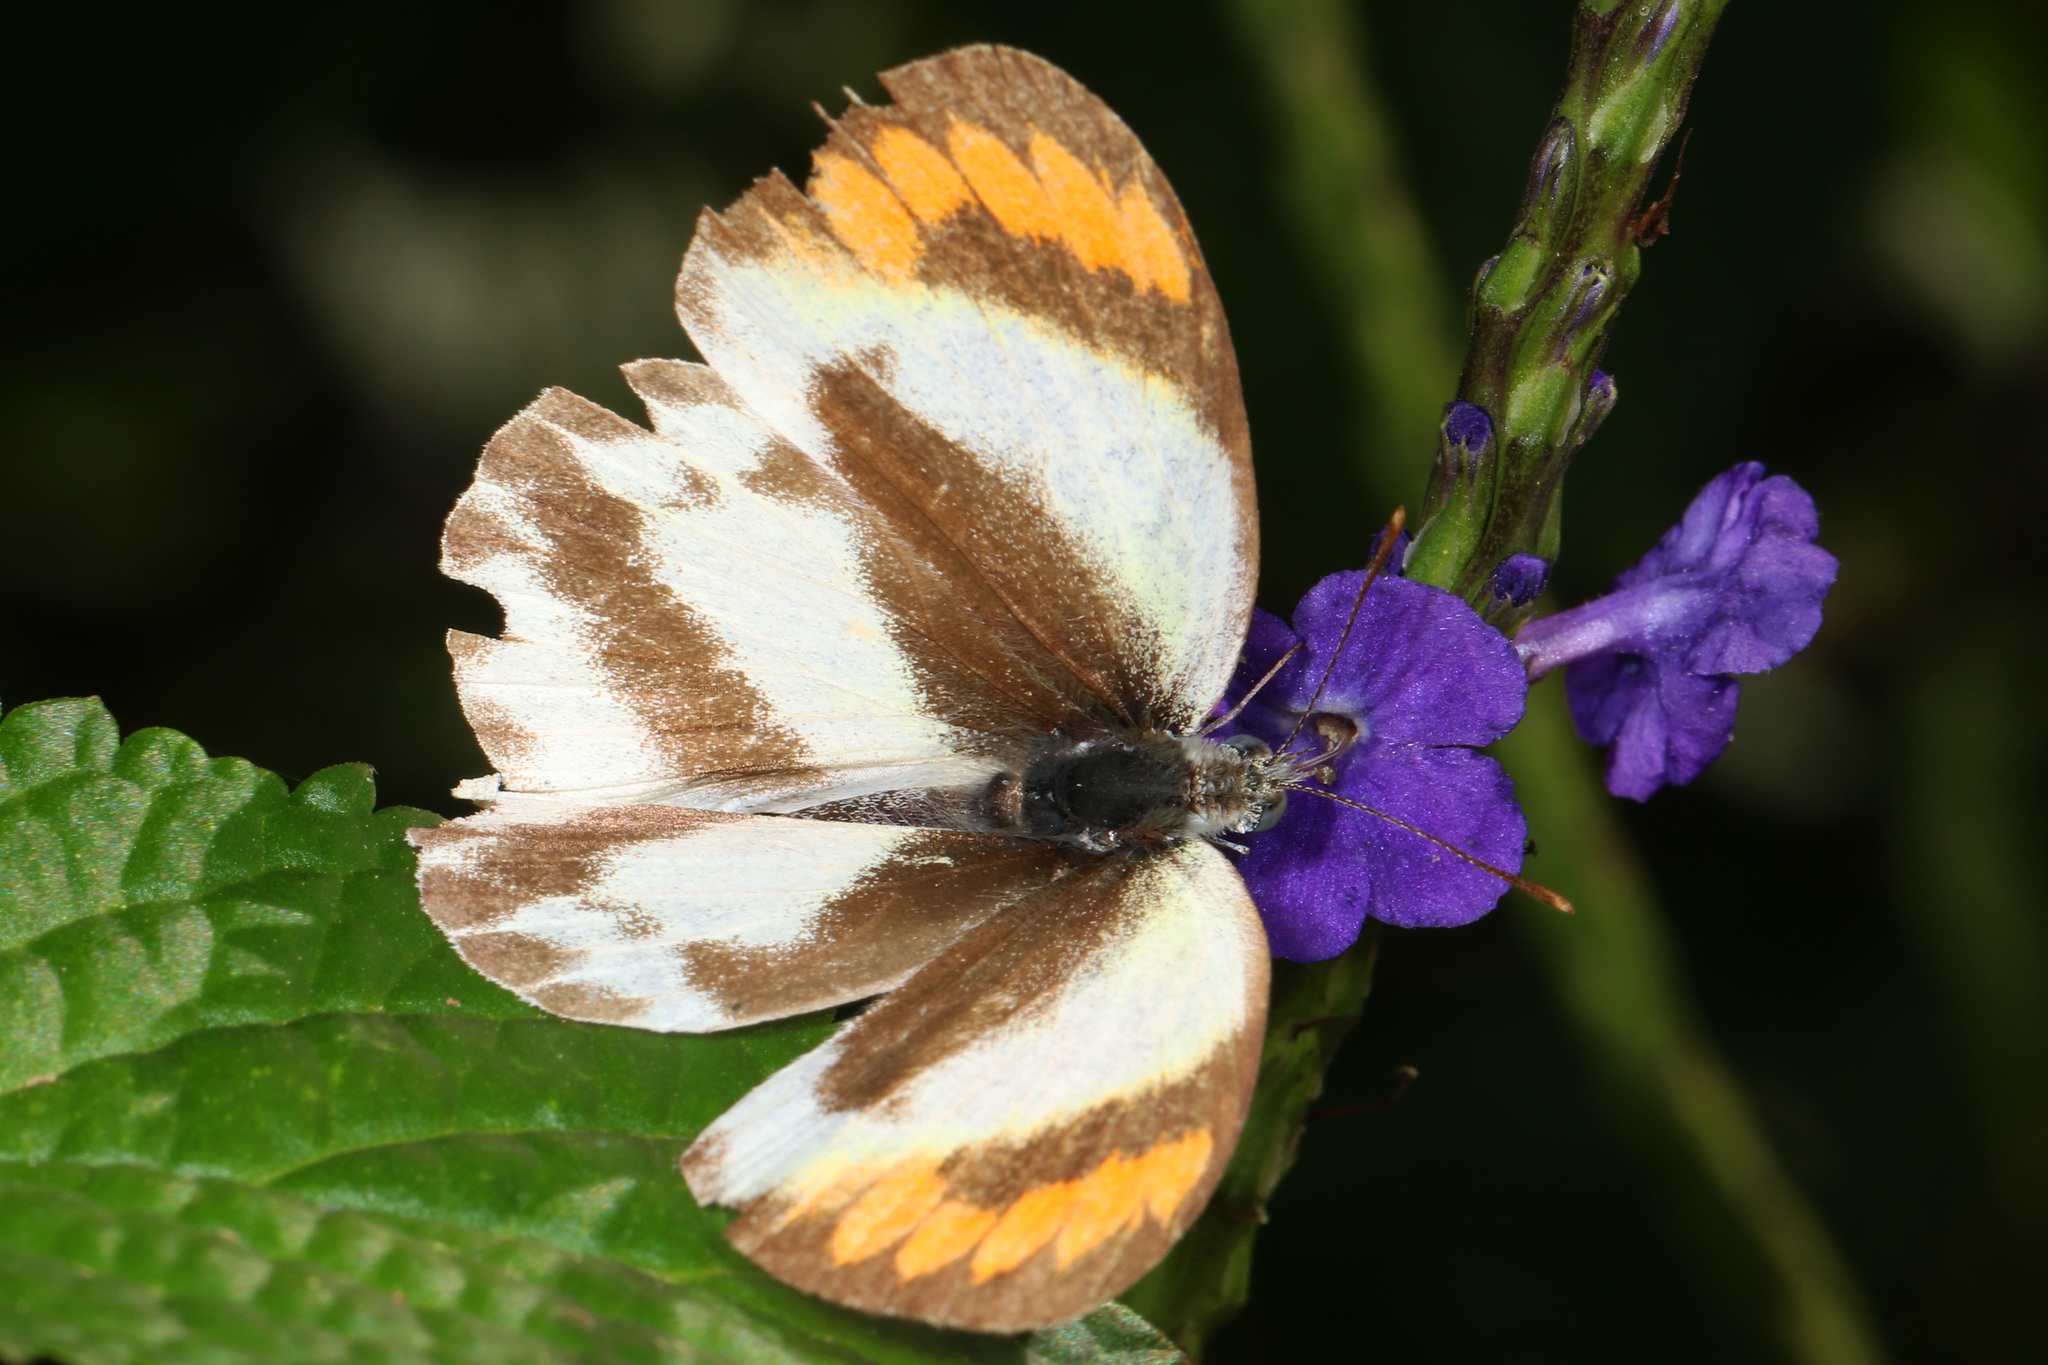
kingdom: Animalia
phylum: Arthropoda
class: Insecta
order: Lepidoptera
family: Pieridae
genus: Colotis
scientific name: Colotis euippe
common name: Round-winged orange tip
